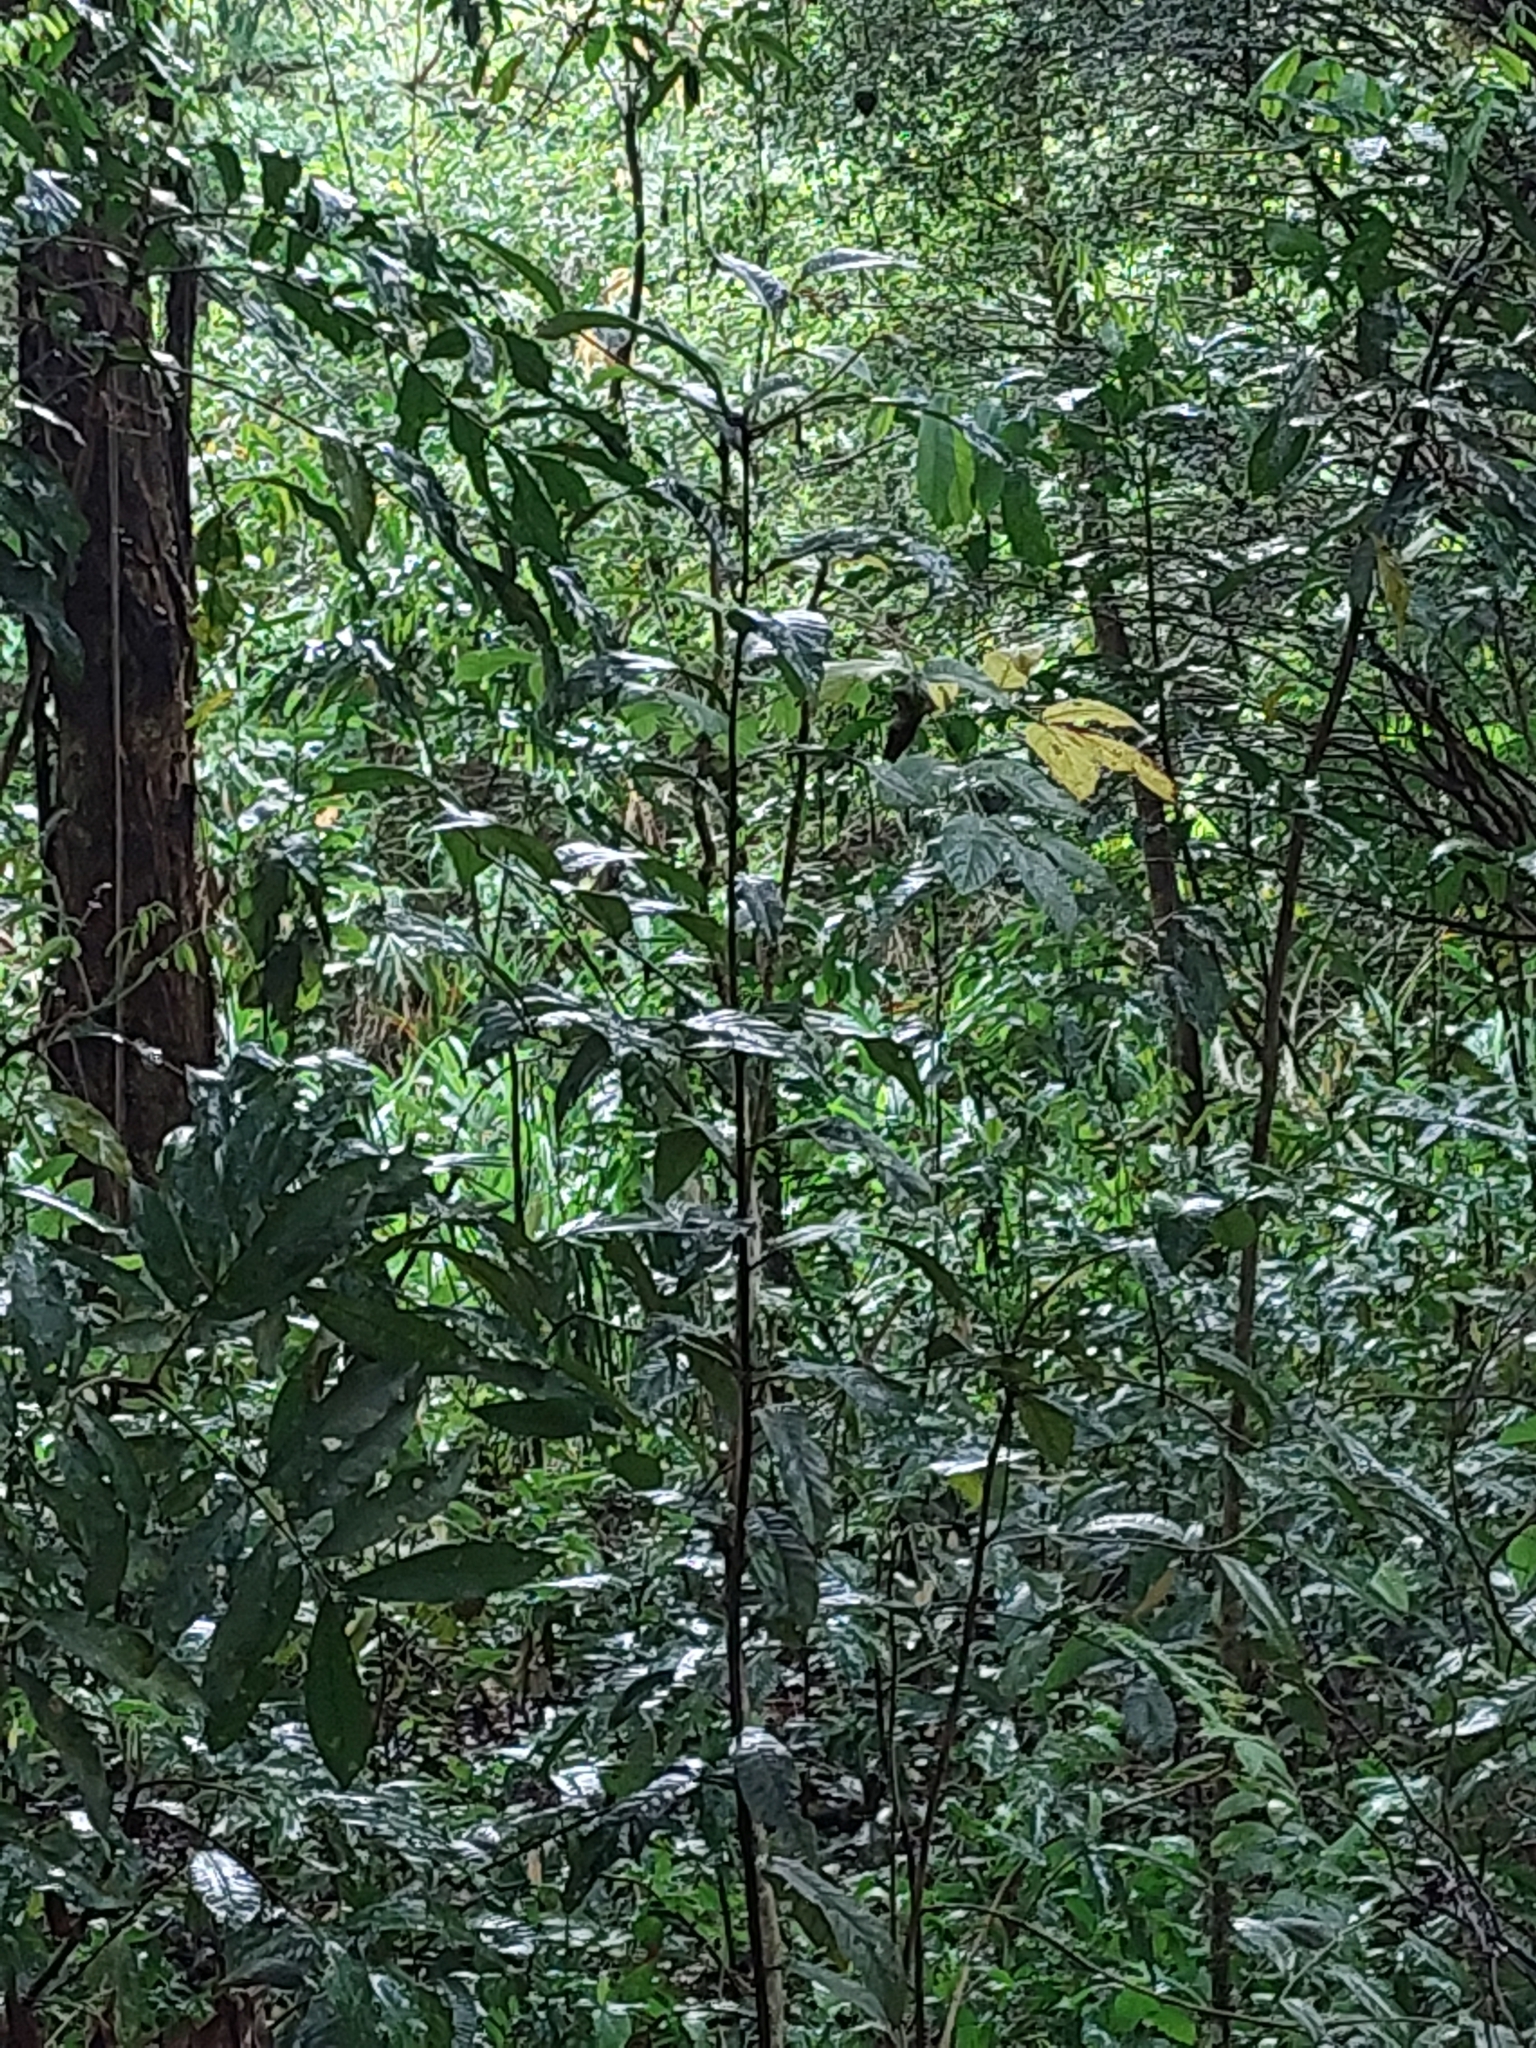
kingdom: Plantae
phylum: Tracheophyta
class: Liliopsida
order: Zingiberales
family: Zingiberaceae
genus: Hedychium
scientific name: Hedychium coronarium
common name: White garland-lily
